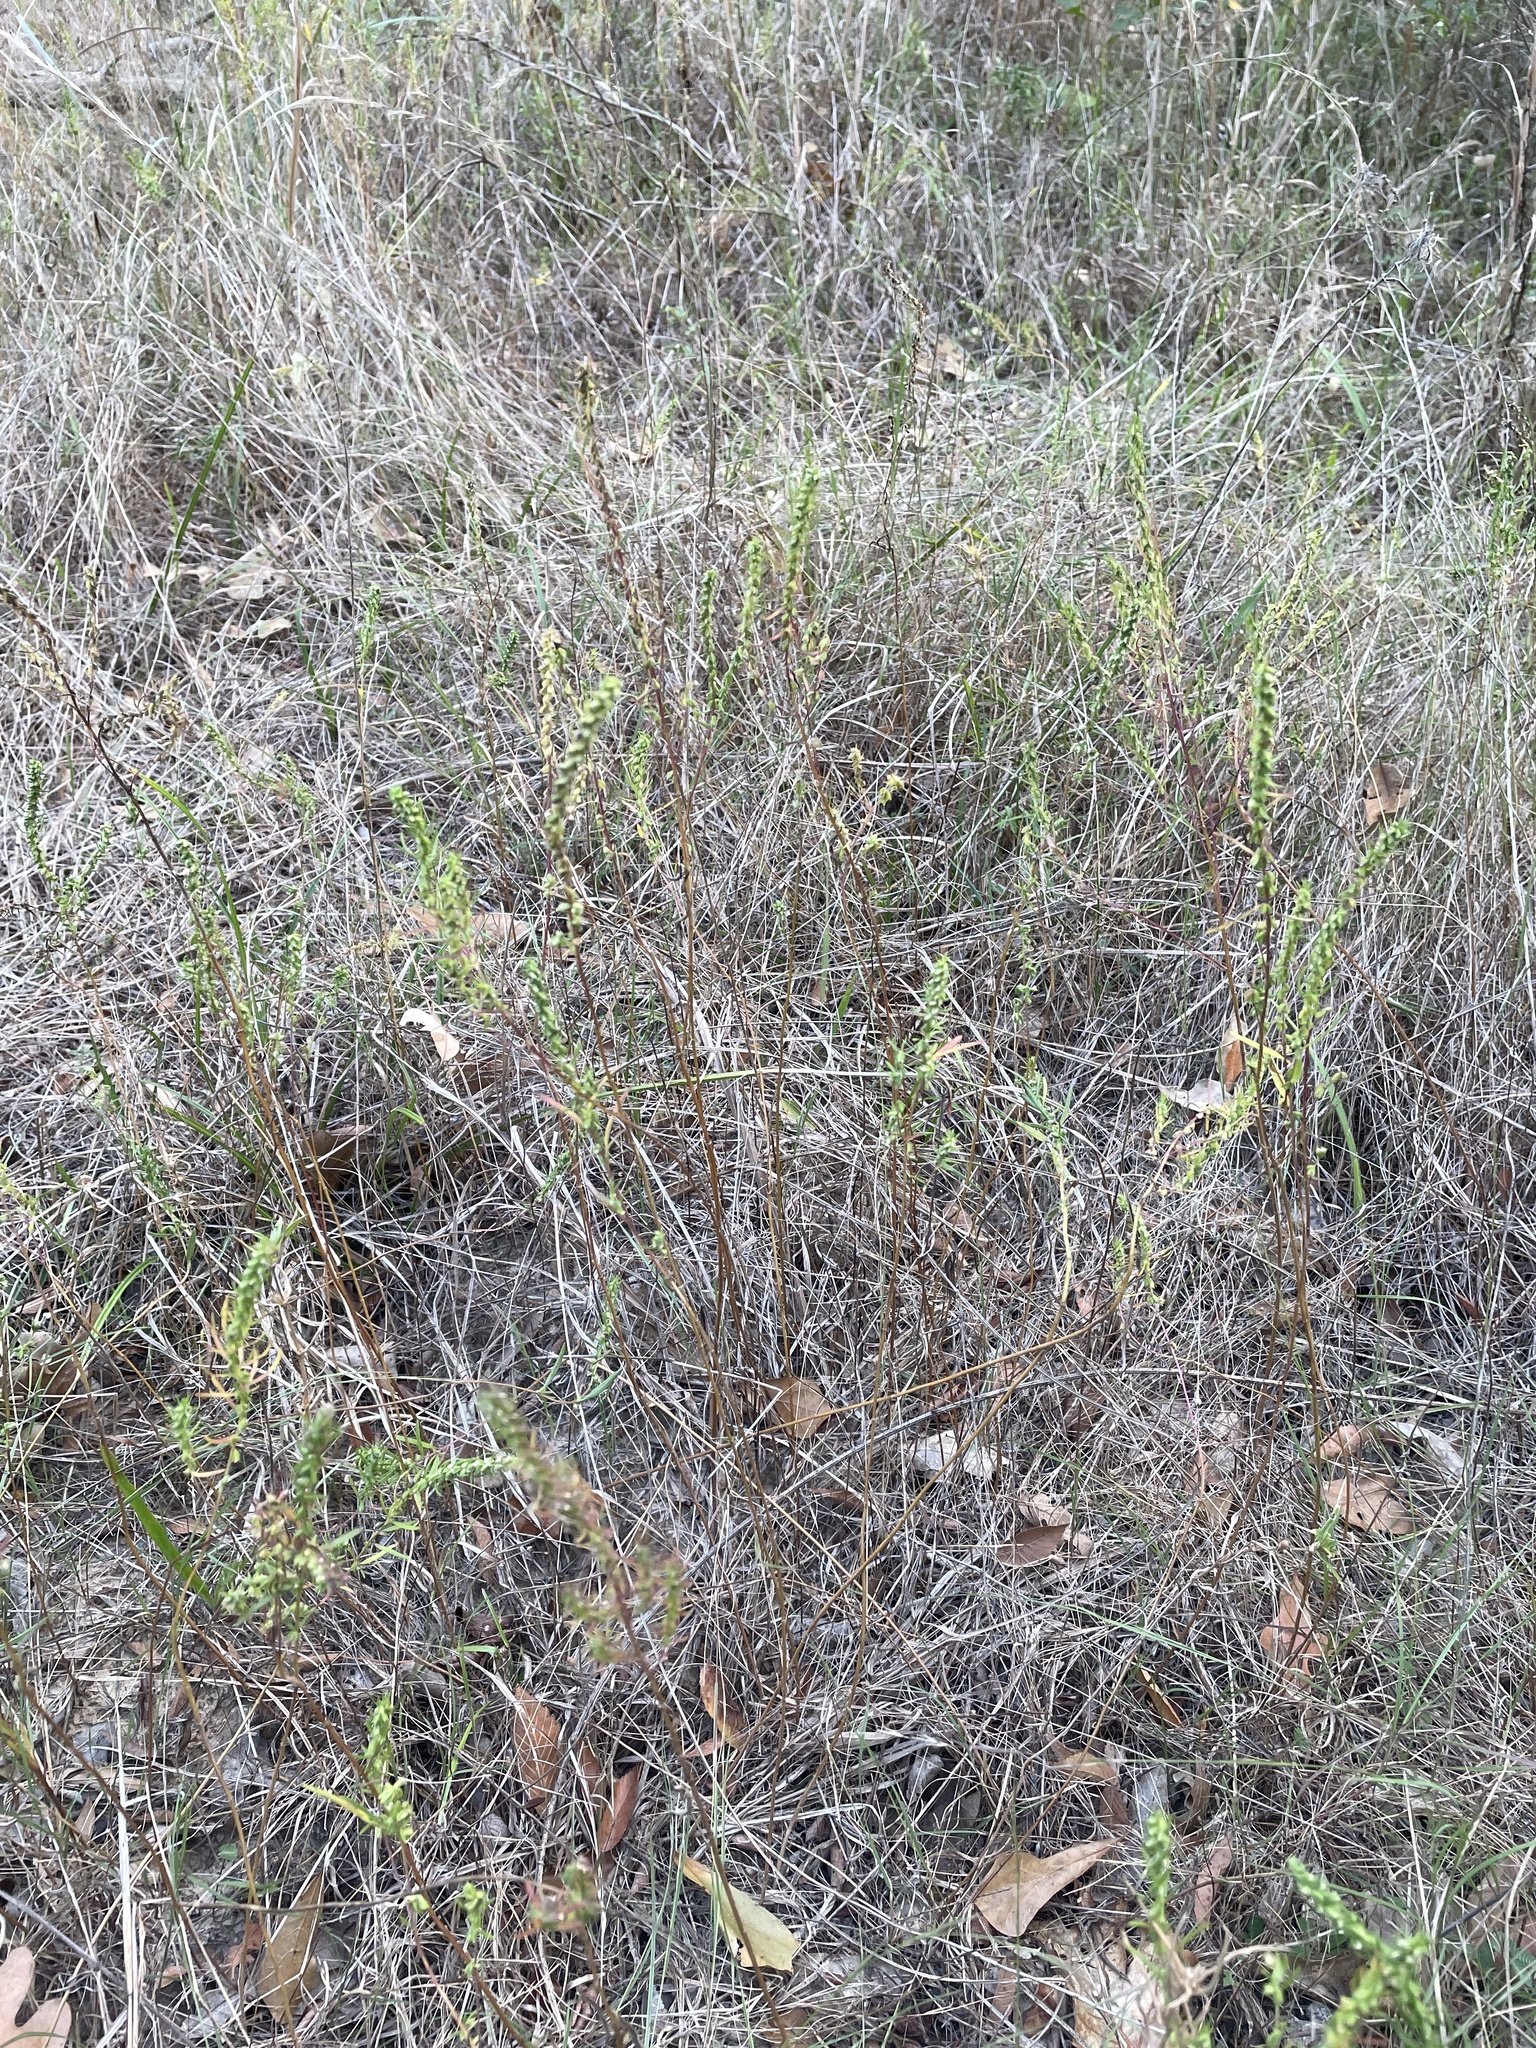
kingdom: Plantae
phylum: Tracheophyta
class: Magnoliopsida
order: Asterales
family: Asteraceae
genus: Iva
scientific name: Iva asperifolia
